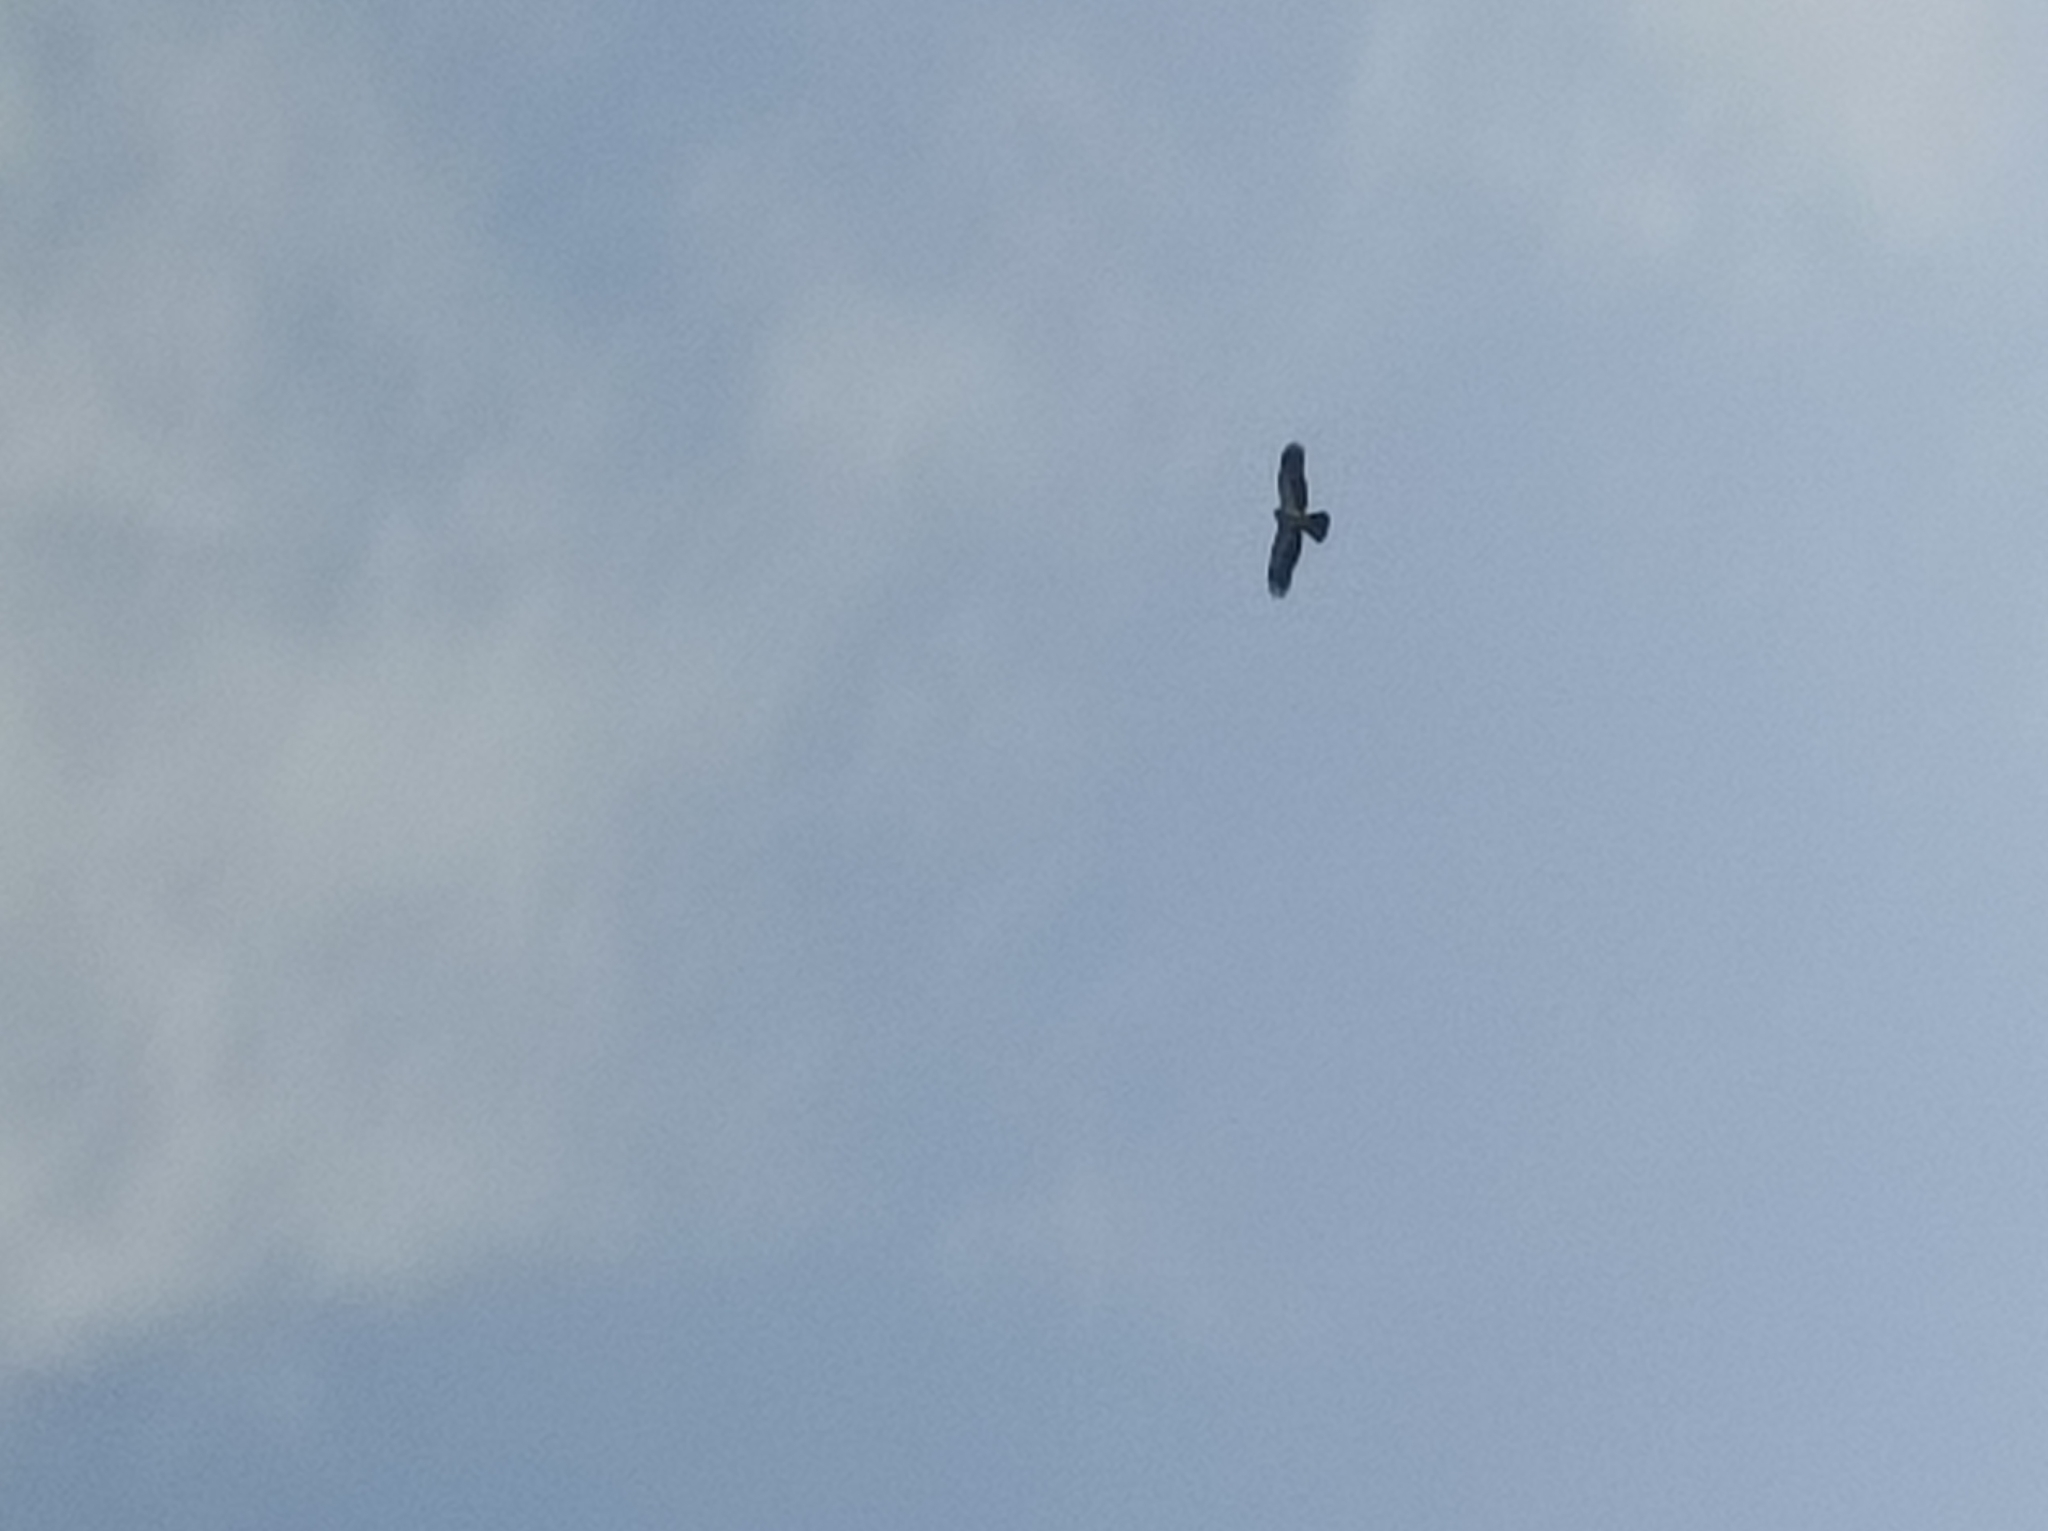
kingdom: Animalia
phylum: Chordata
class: Aves
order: Accipitriformes
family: Accipitridae
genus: Hieraaetus
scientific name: Hieraaetus pennatus
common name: Booted eagle
